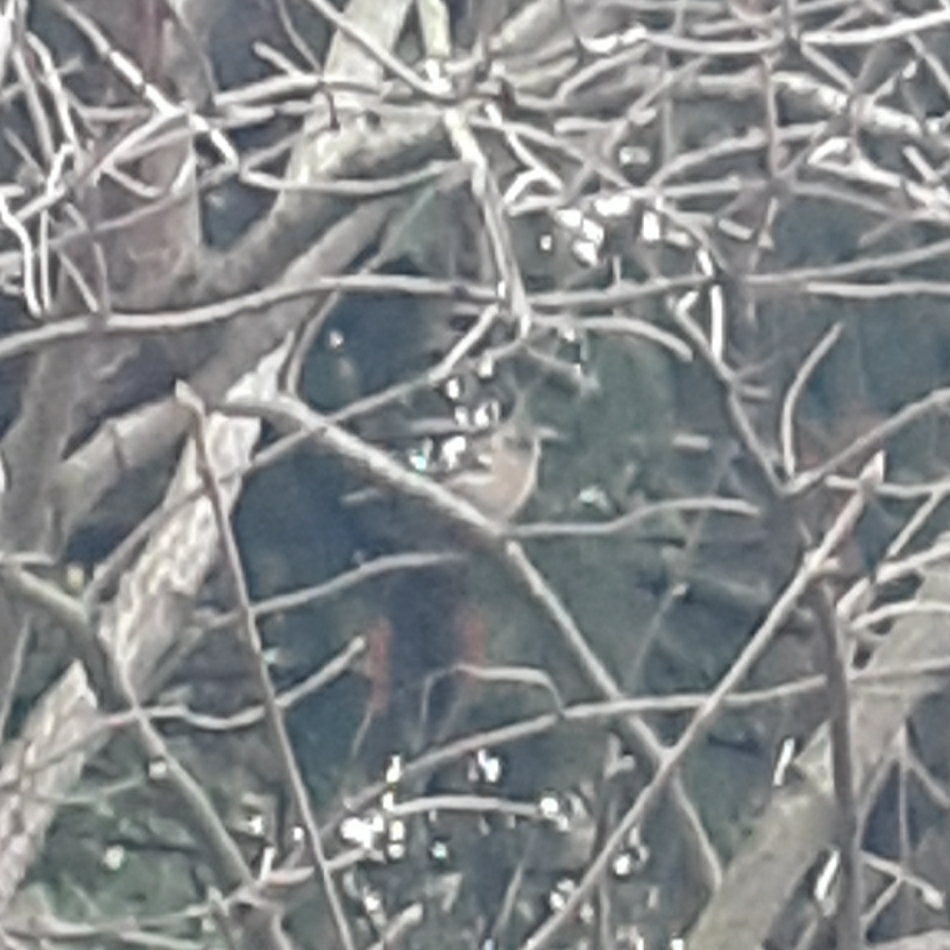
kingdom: Animalia
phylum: Chordata
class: Aves
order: Passeriformes
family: Fringillidae
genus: Fringilla
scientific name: Fringilla coelebs
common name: Common chaffinch
